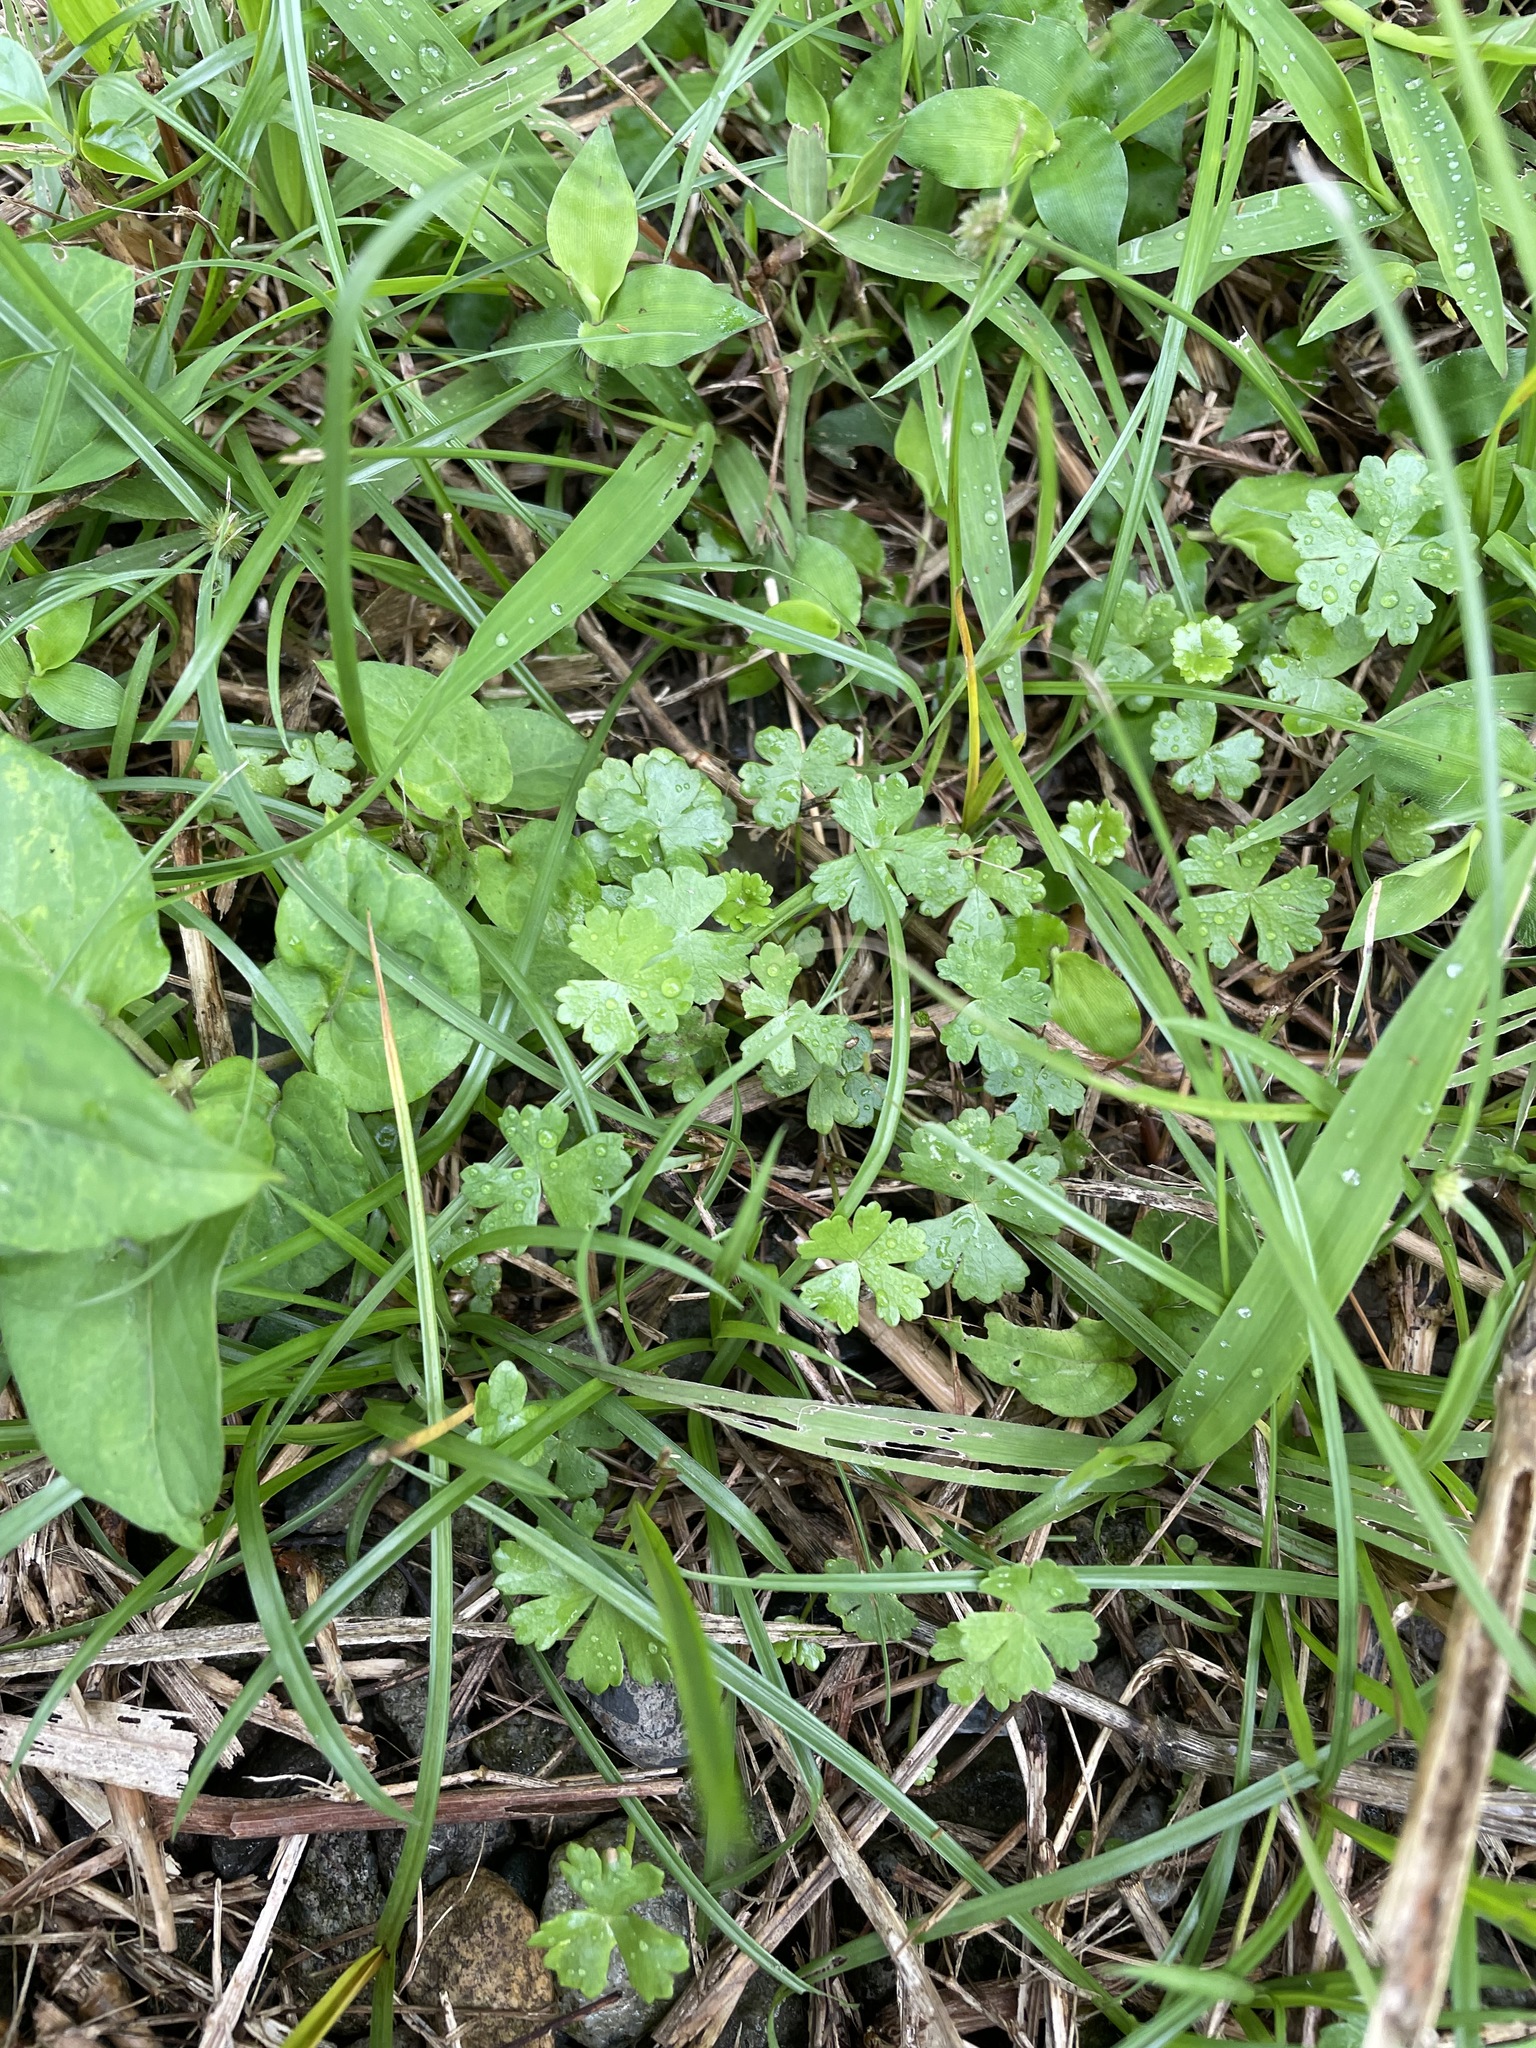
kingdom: Plantae
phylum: Tracheophyta
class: Magnoliopsida
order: Apiales
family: Araliaceae
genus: Hydrocotyle
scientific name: Hydrocotyle batrachium
